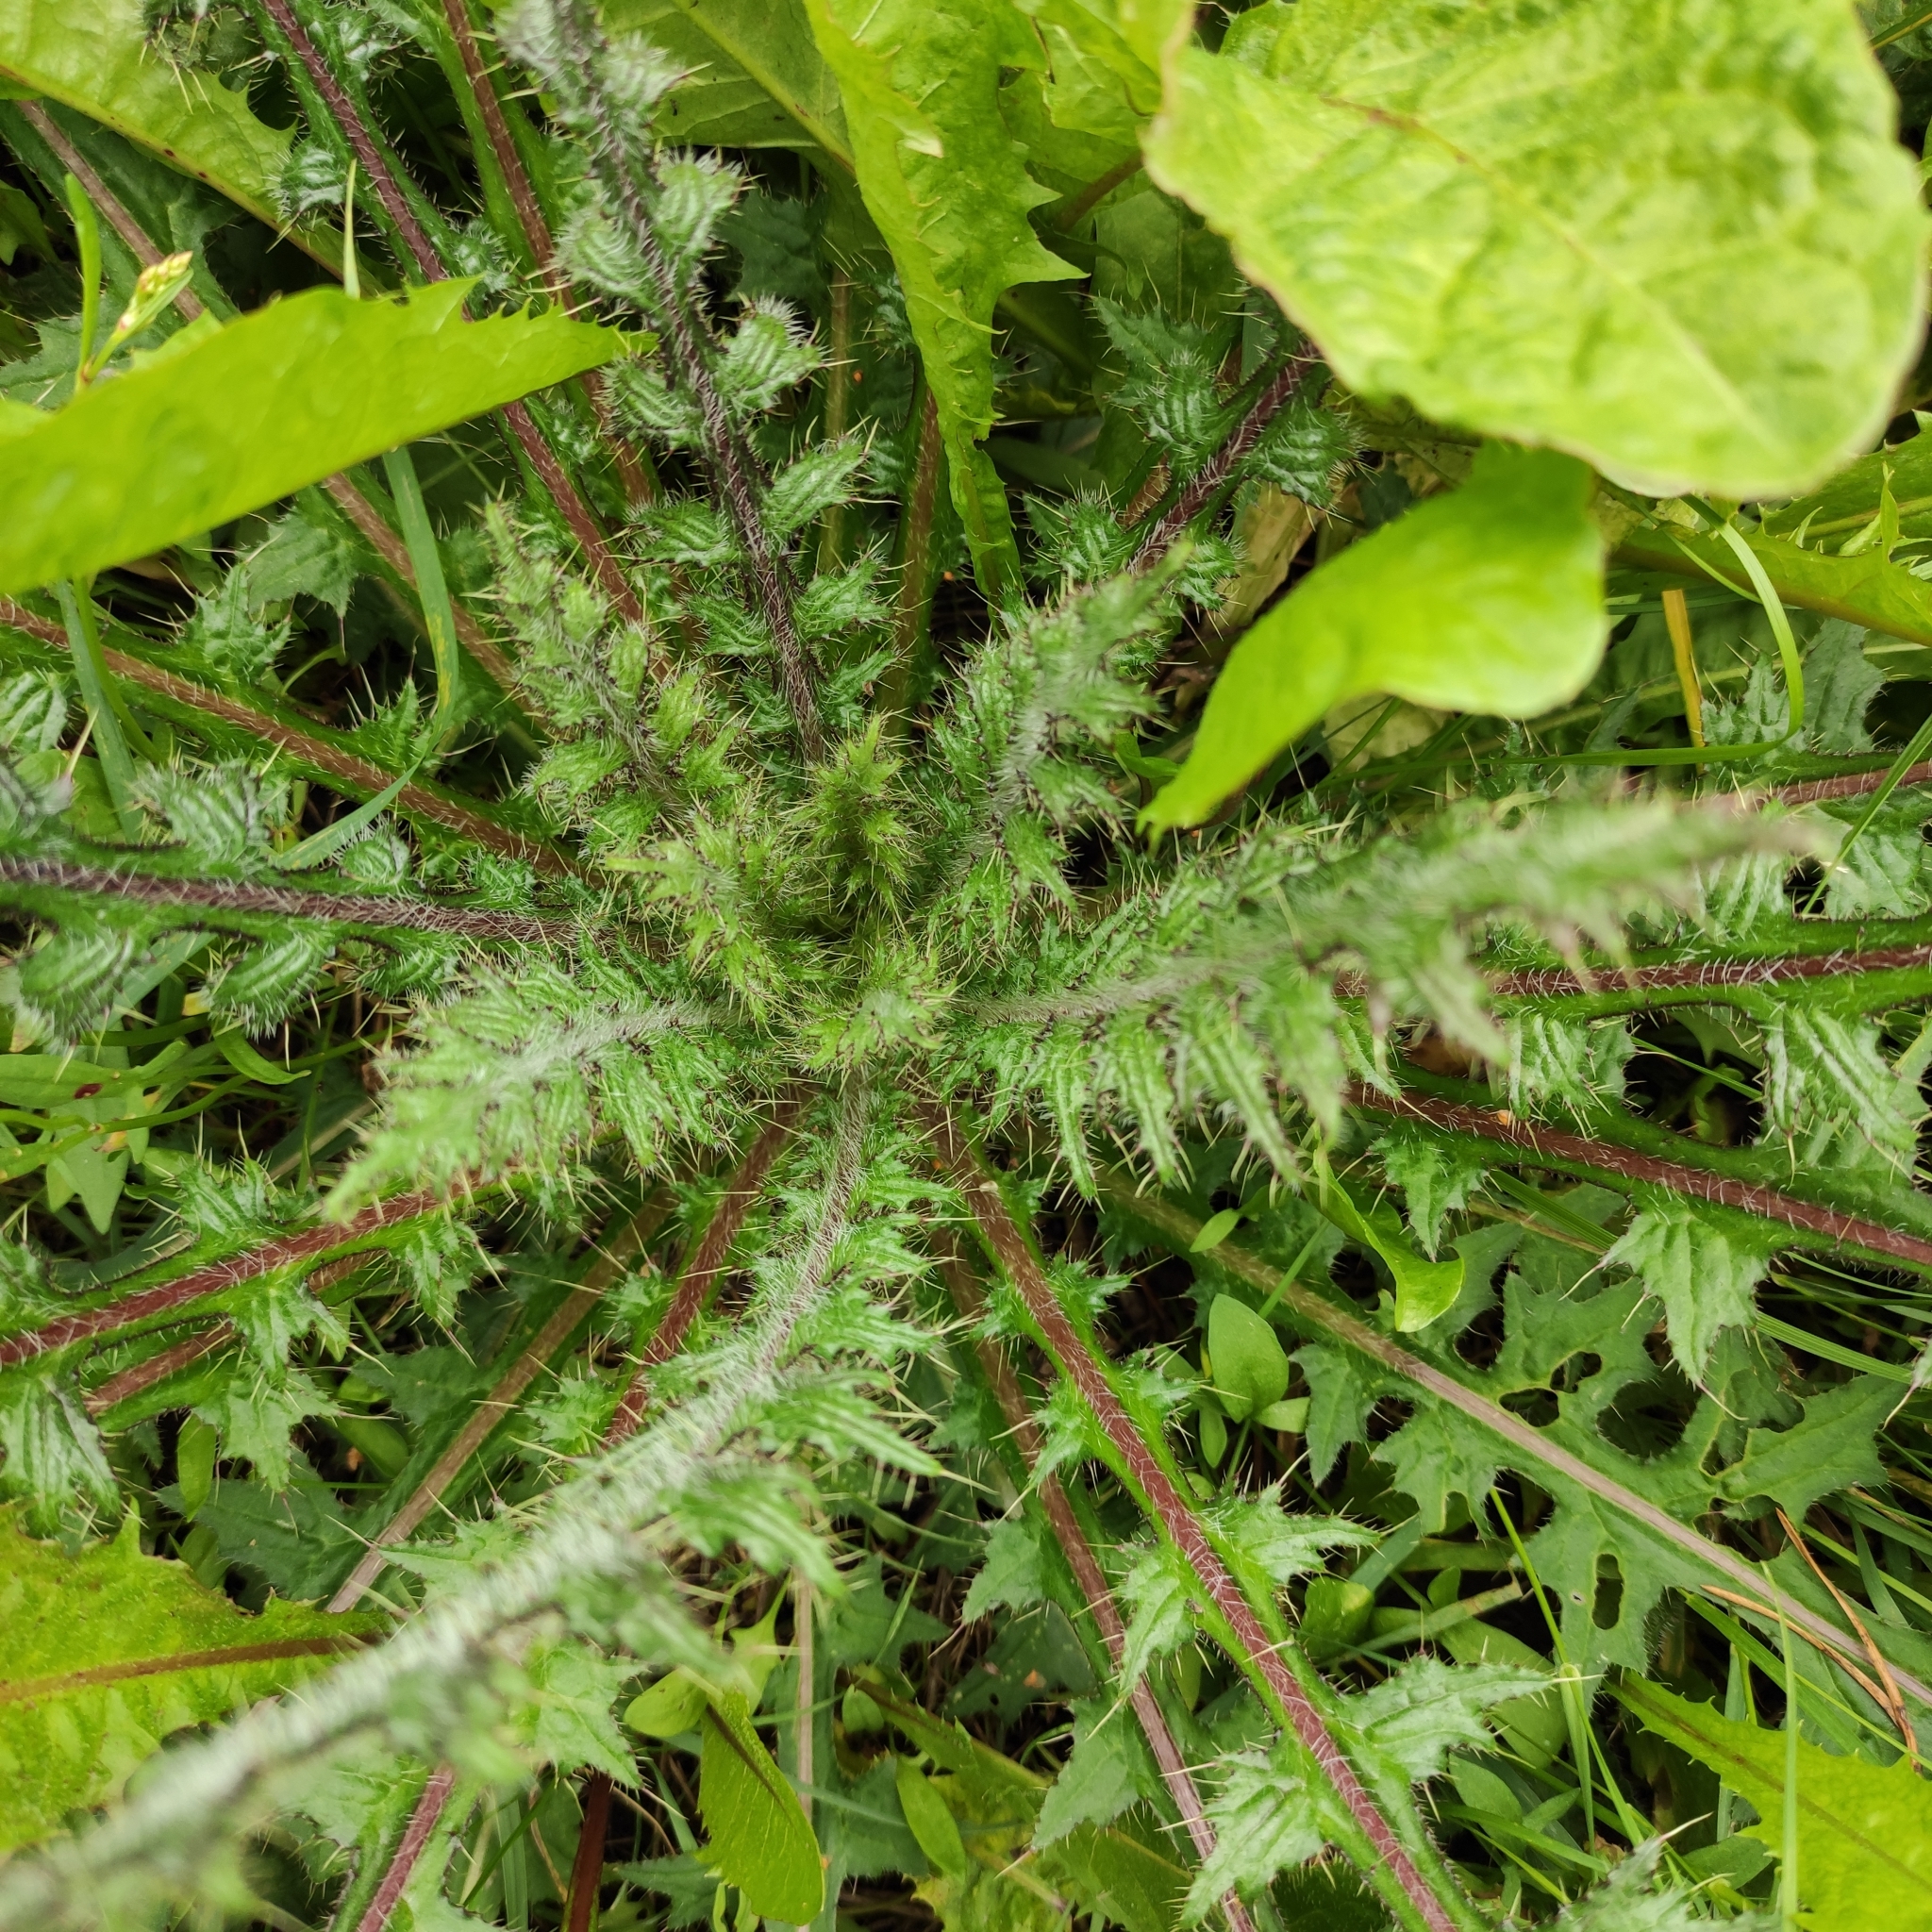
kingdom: Plantae
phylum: Tracheophyta
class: Magnoliopsida
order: Asterales
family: Asteraceae
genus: Cirsium
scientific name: Cirsium palustre
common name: Marsh thistle
